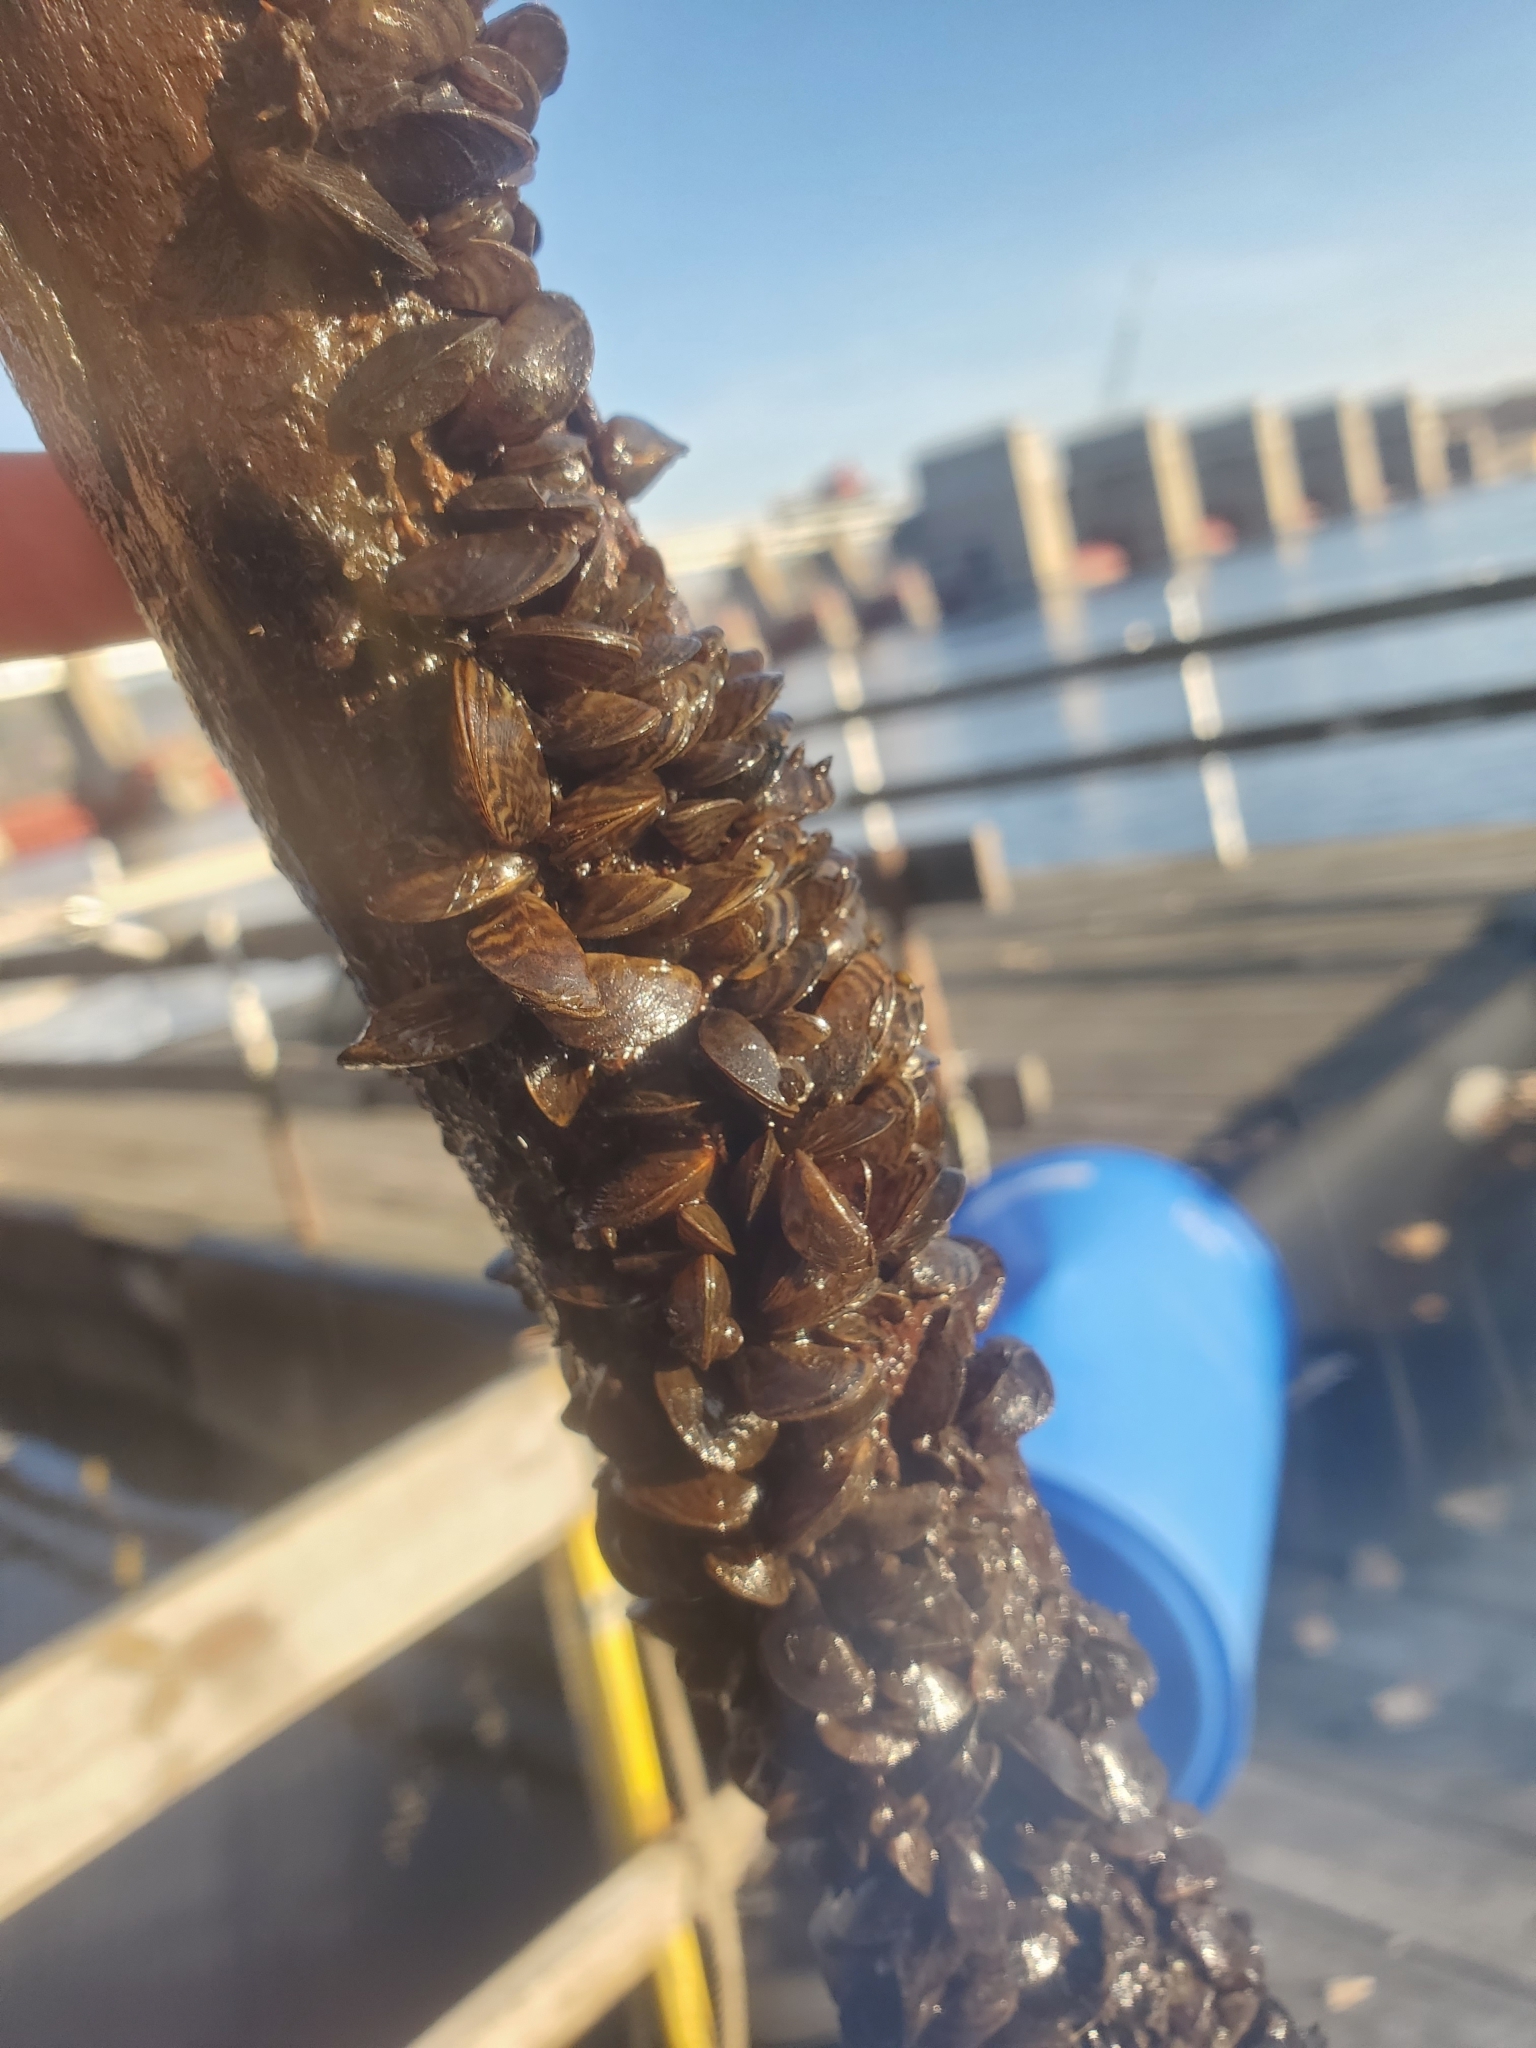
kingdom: Animalia
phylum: Mollusca
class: Bivalvia
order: Myida
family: Dreissenidae
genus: Dreissena
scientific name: Dreissena polymorpha
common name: Zebra mussel
